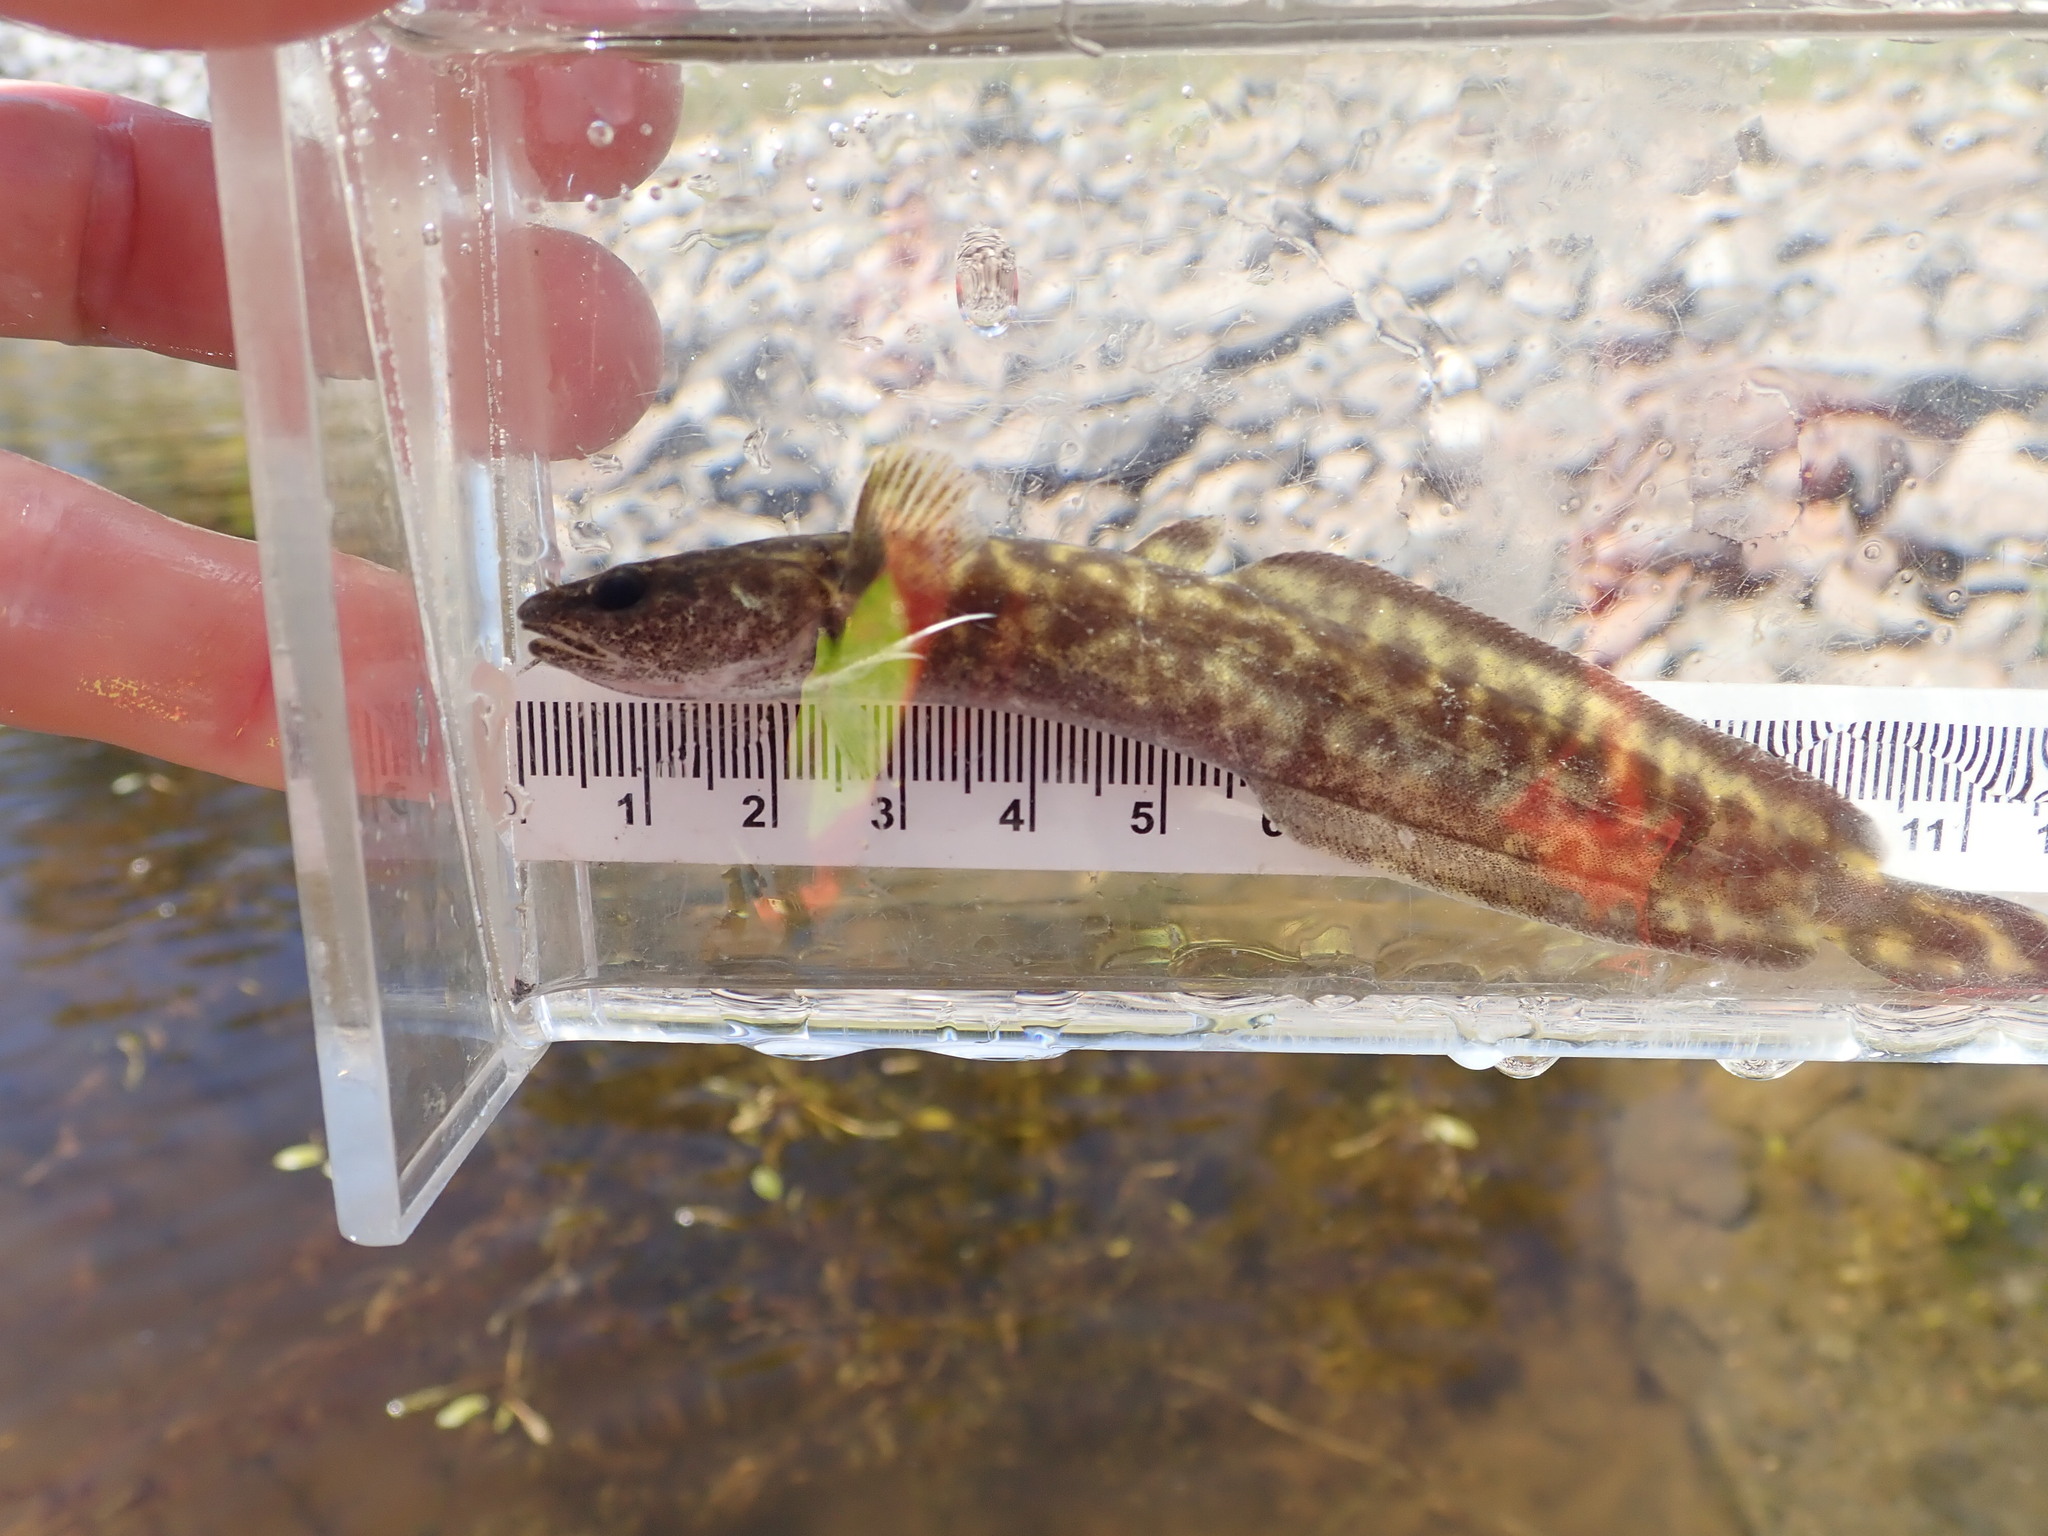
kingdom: Animalia
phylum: Chordata
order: Gadiformes
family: Lotidae
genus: Lota
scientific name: Lota lota
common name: Burbot
